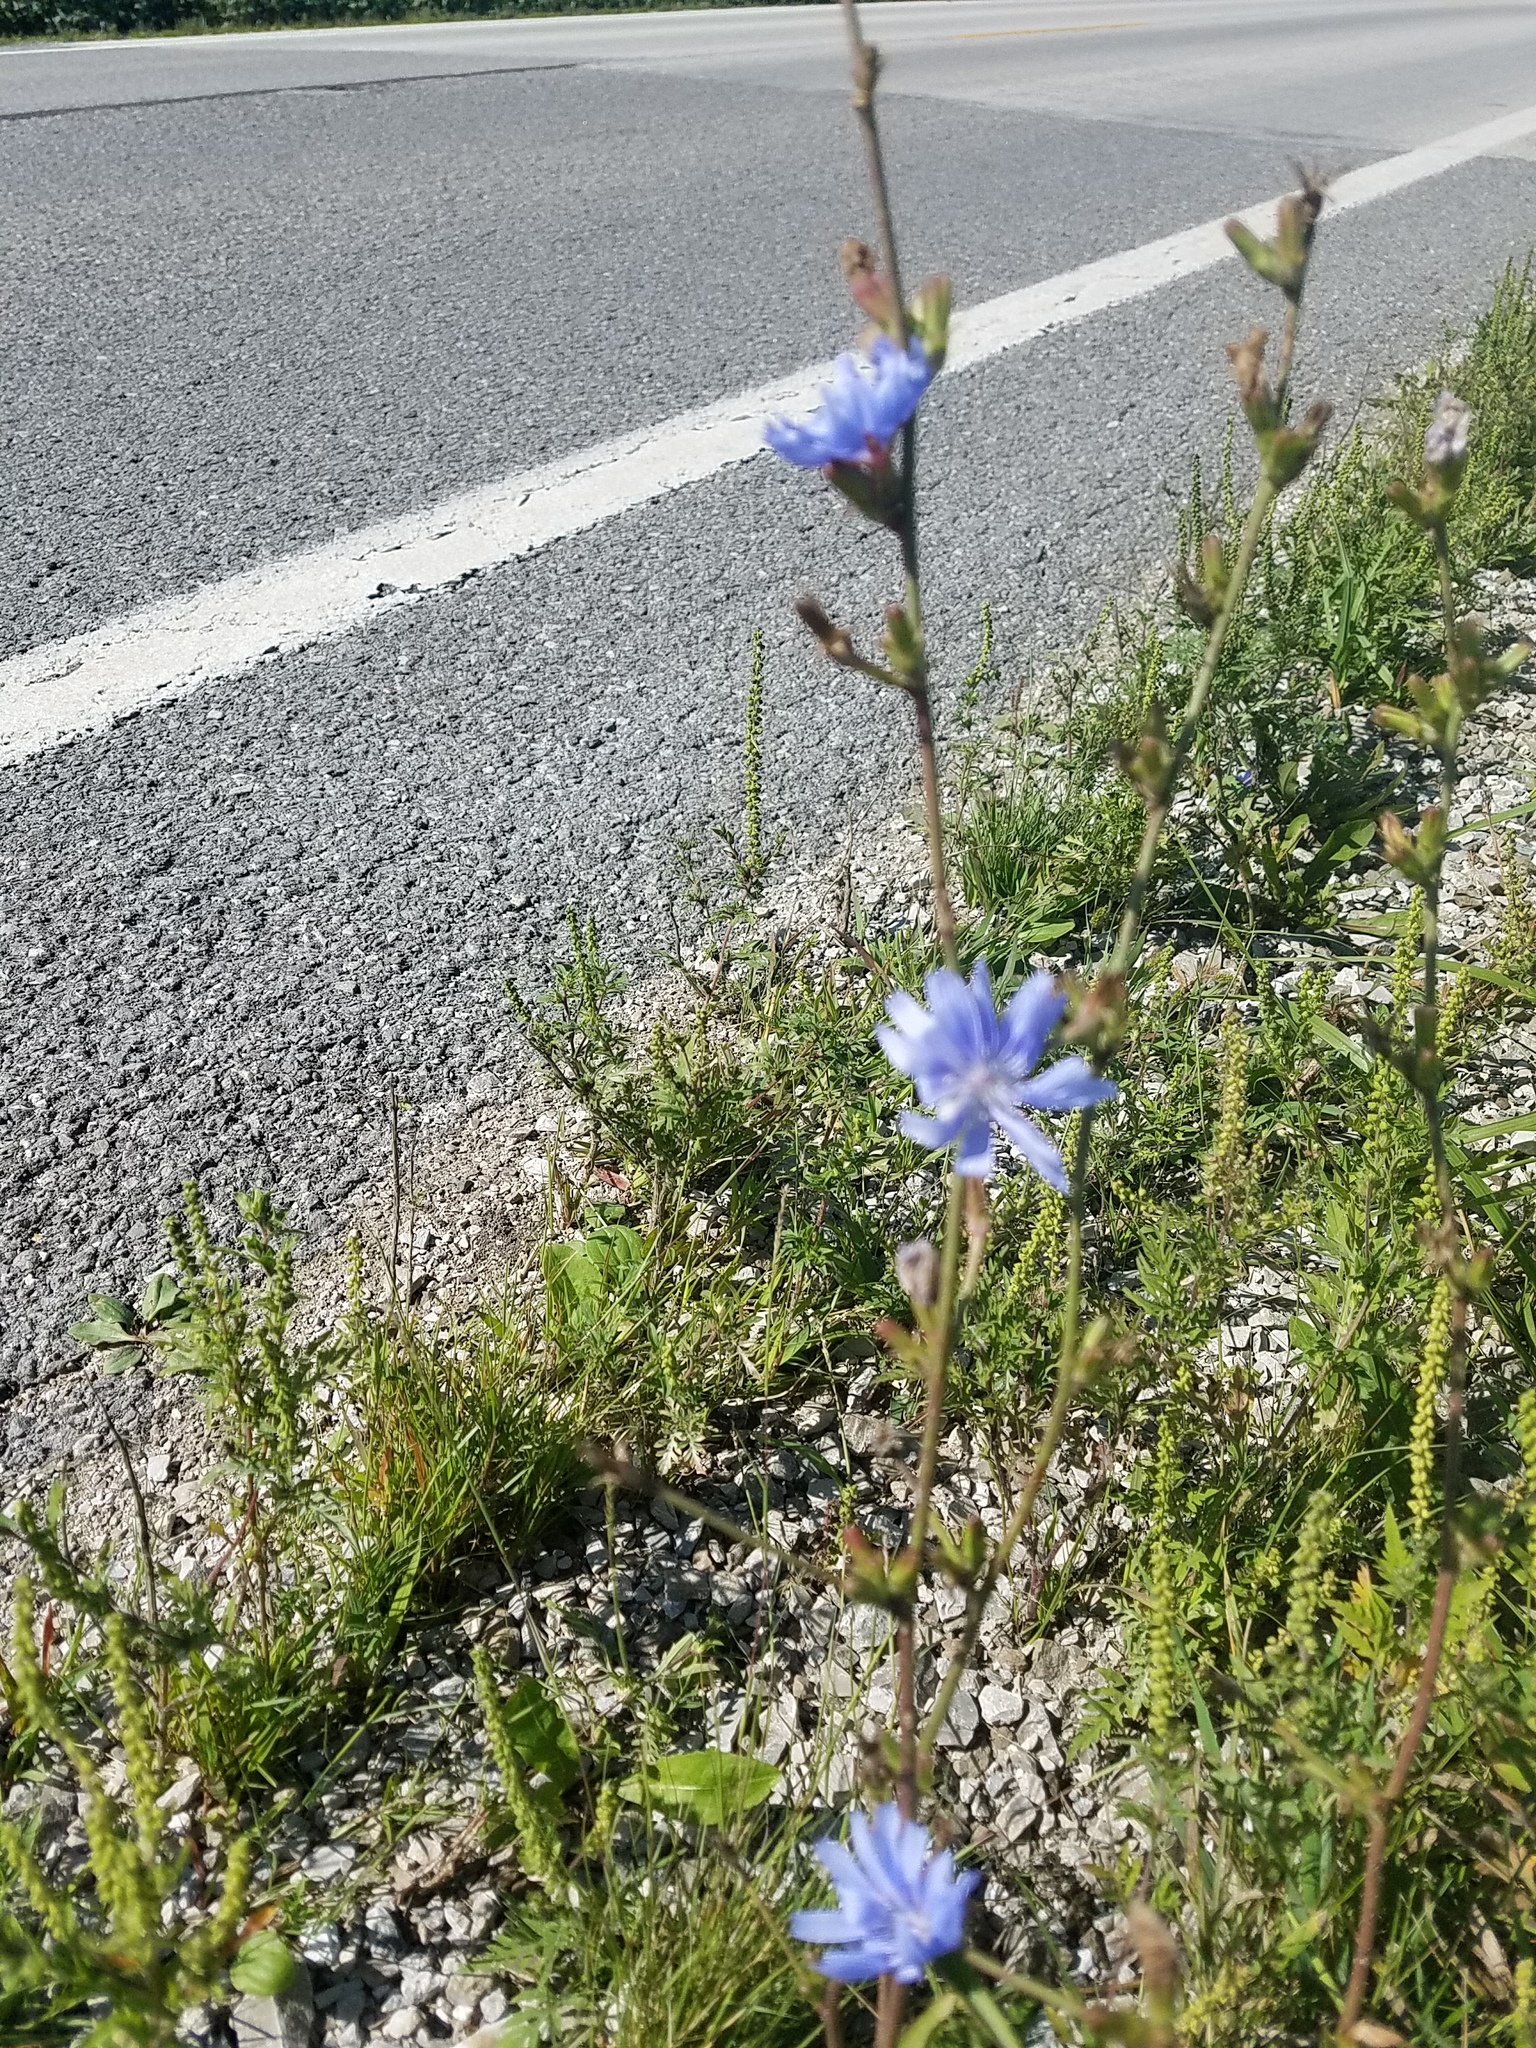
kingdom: Plantae
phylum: Tracheophyta
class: Magnoliopsida
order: Asterales
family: Asteraceae
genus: Cichorium
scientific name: Cichorium intybus
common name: Chicory
